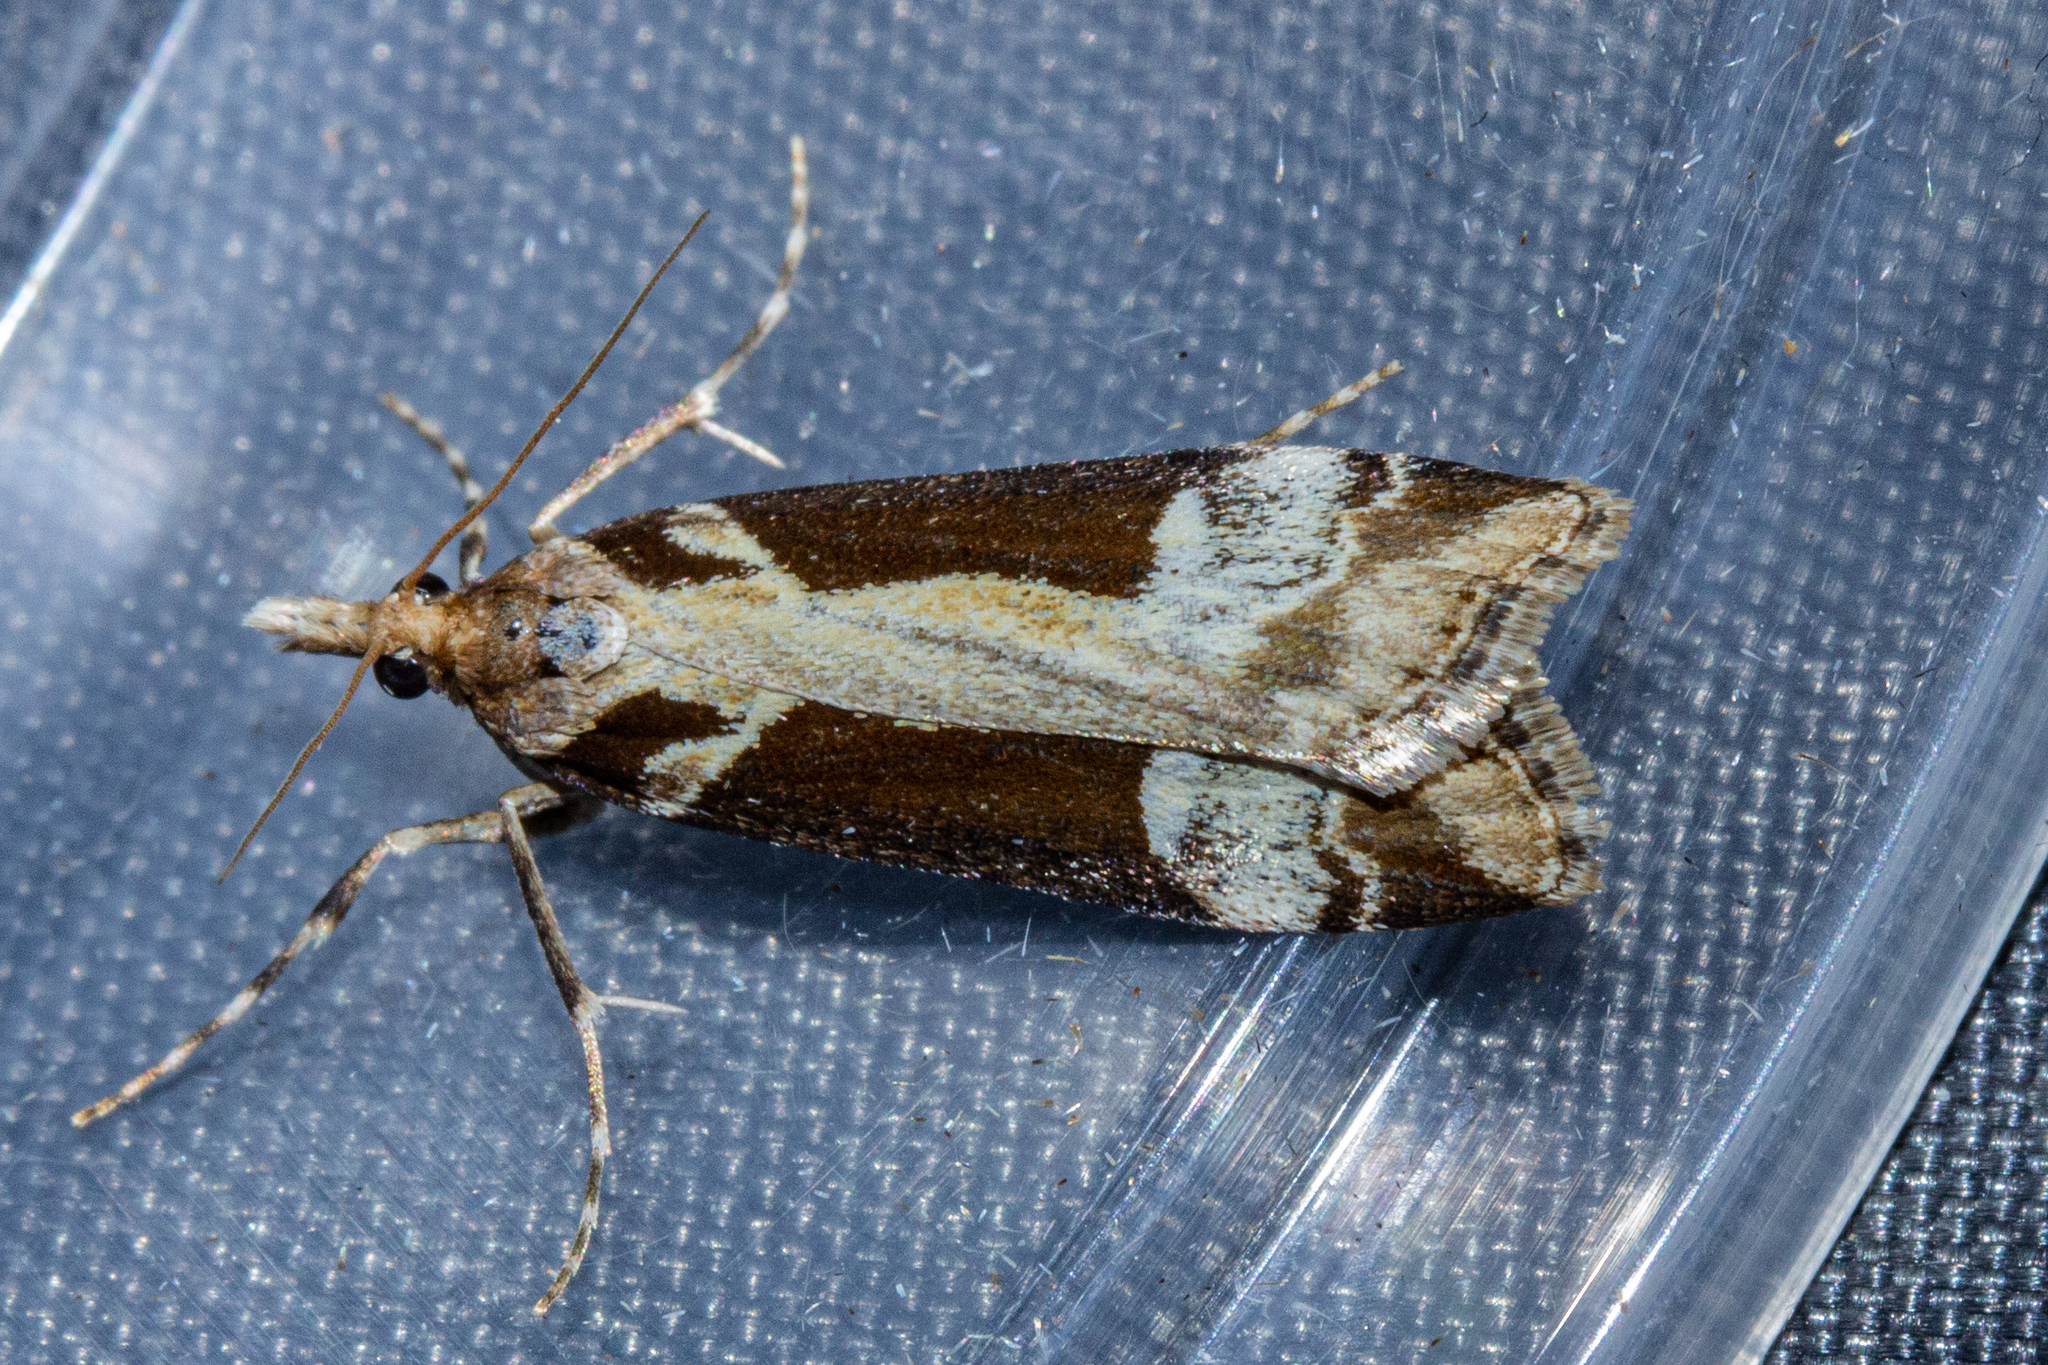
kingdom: Animalia
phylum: Arthropoda
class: Insecta
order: Lepidoptera
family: Crambidae
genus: Scoparia
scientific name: Scoparia trapezophora
